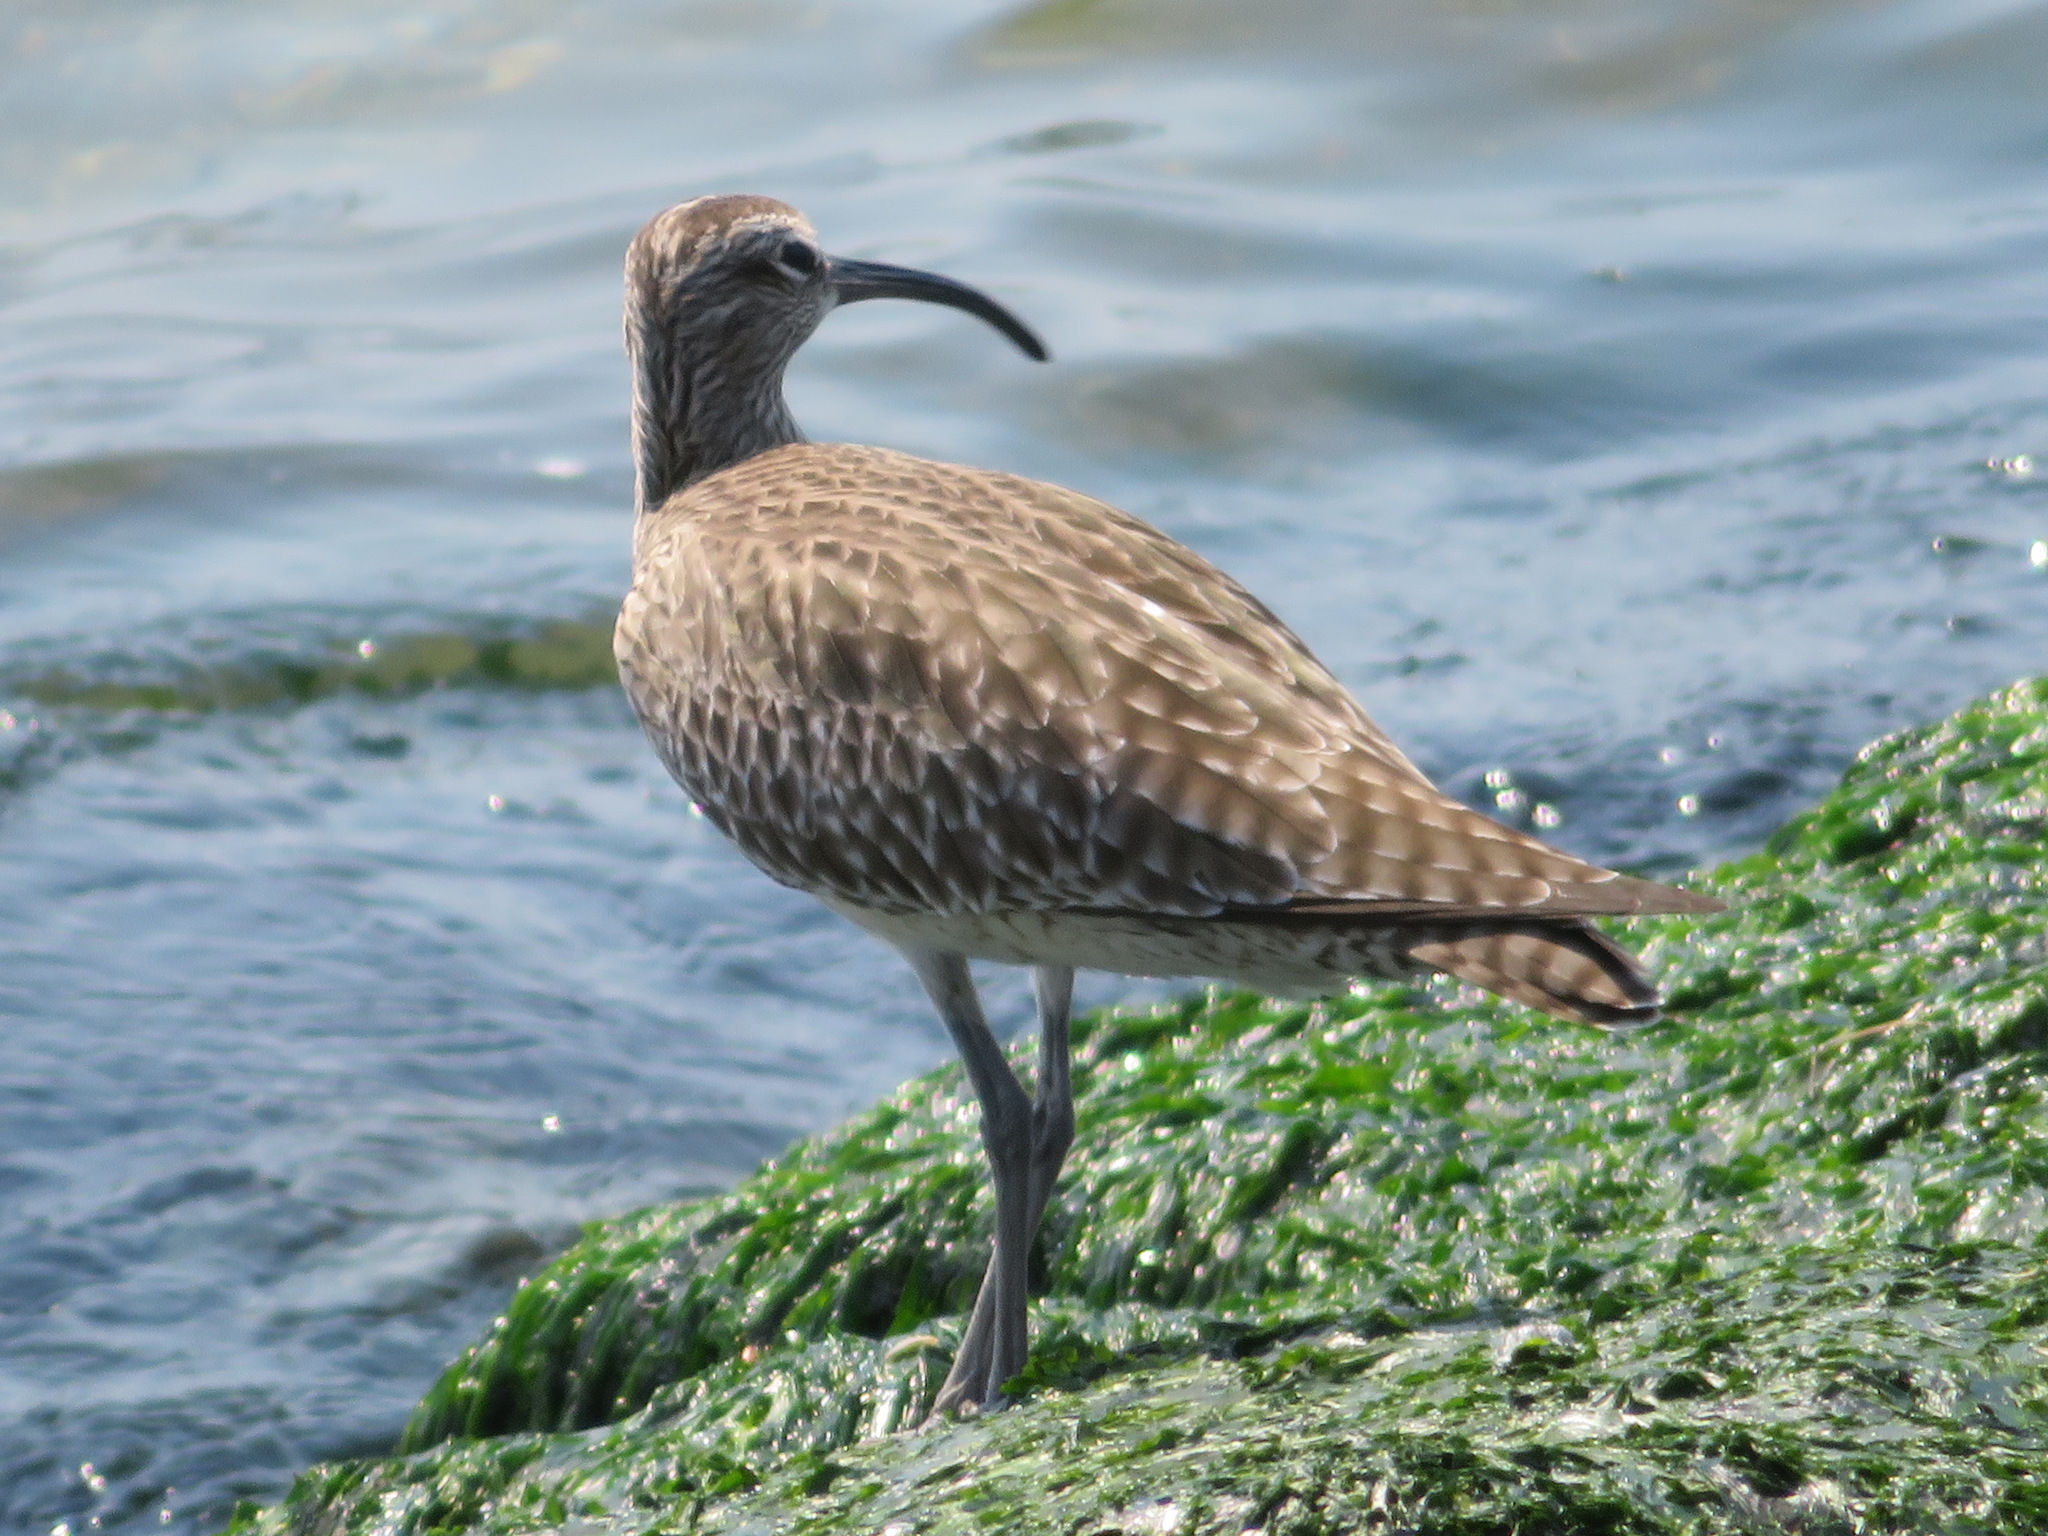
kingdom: Animalia
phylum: Chordata
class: Aves
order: Charadriiformes
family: Scolopacidae
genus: Numenius
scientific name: Numenius phaeopus
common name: Whimbrel
